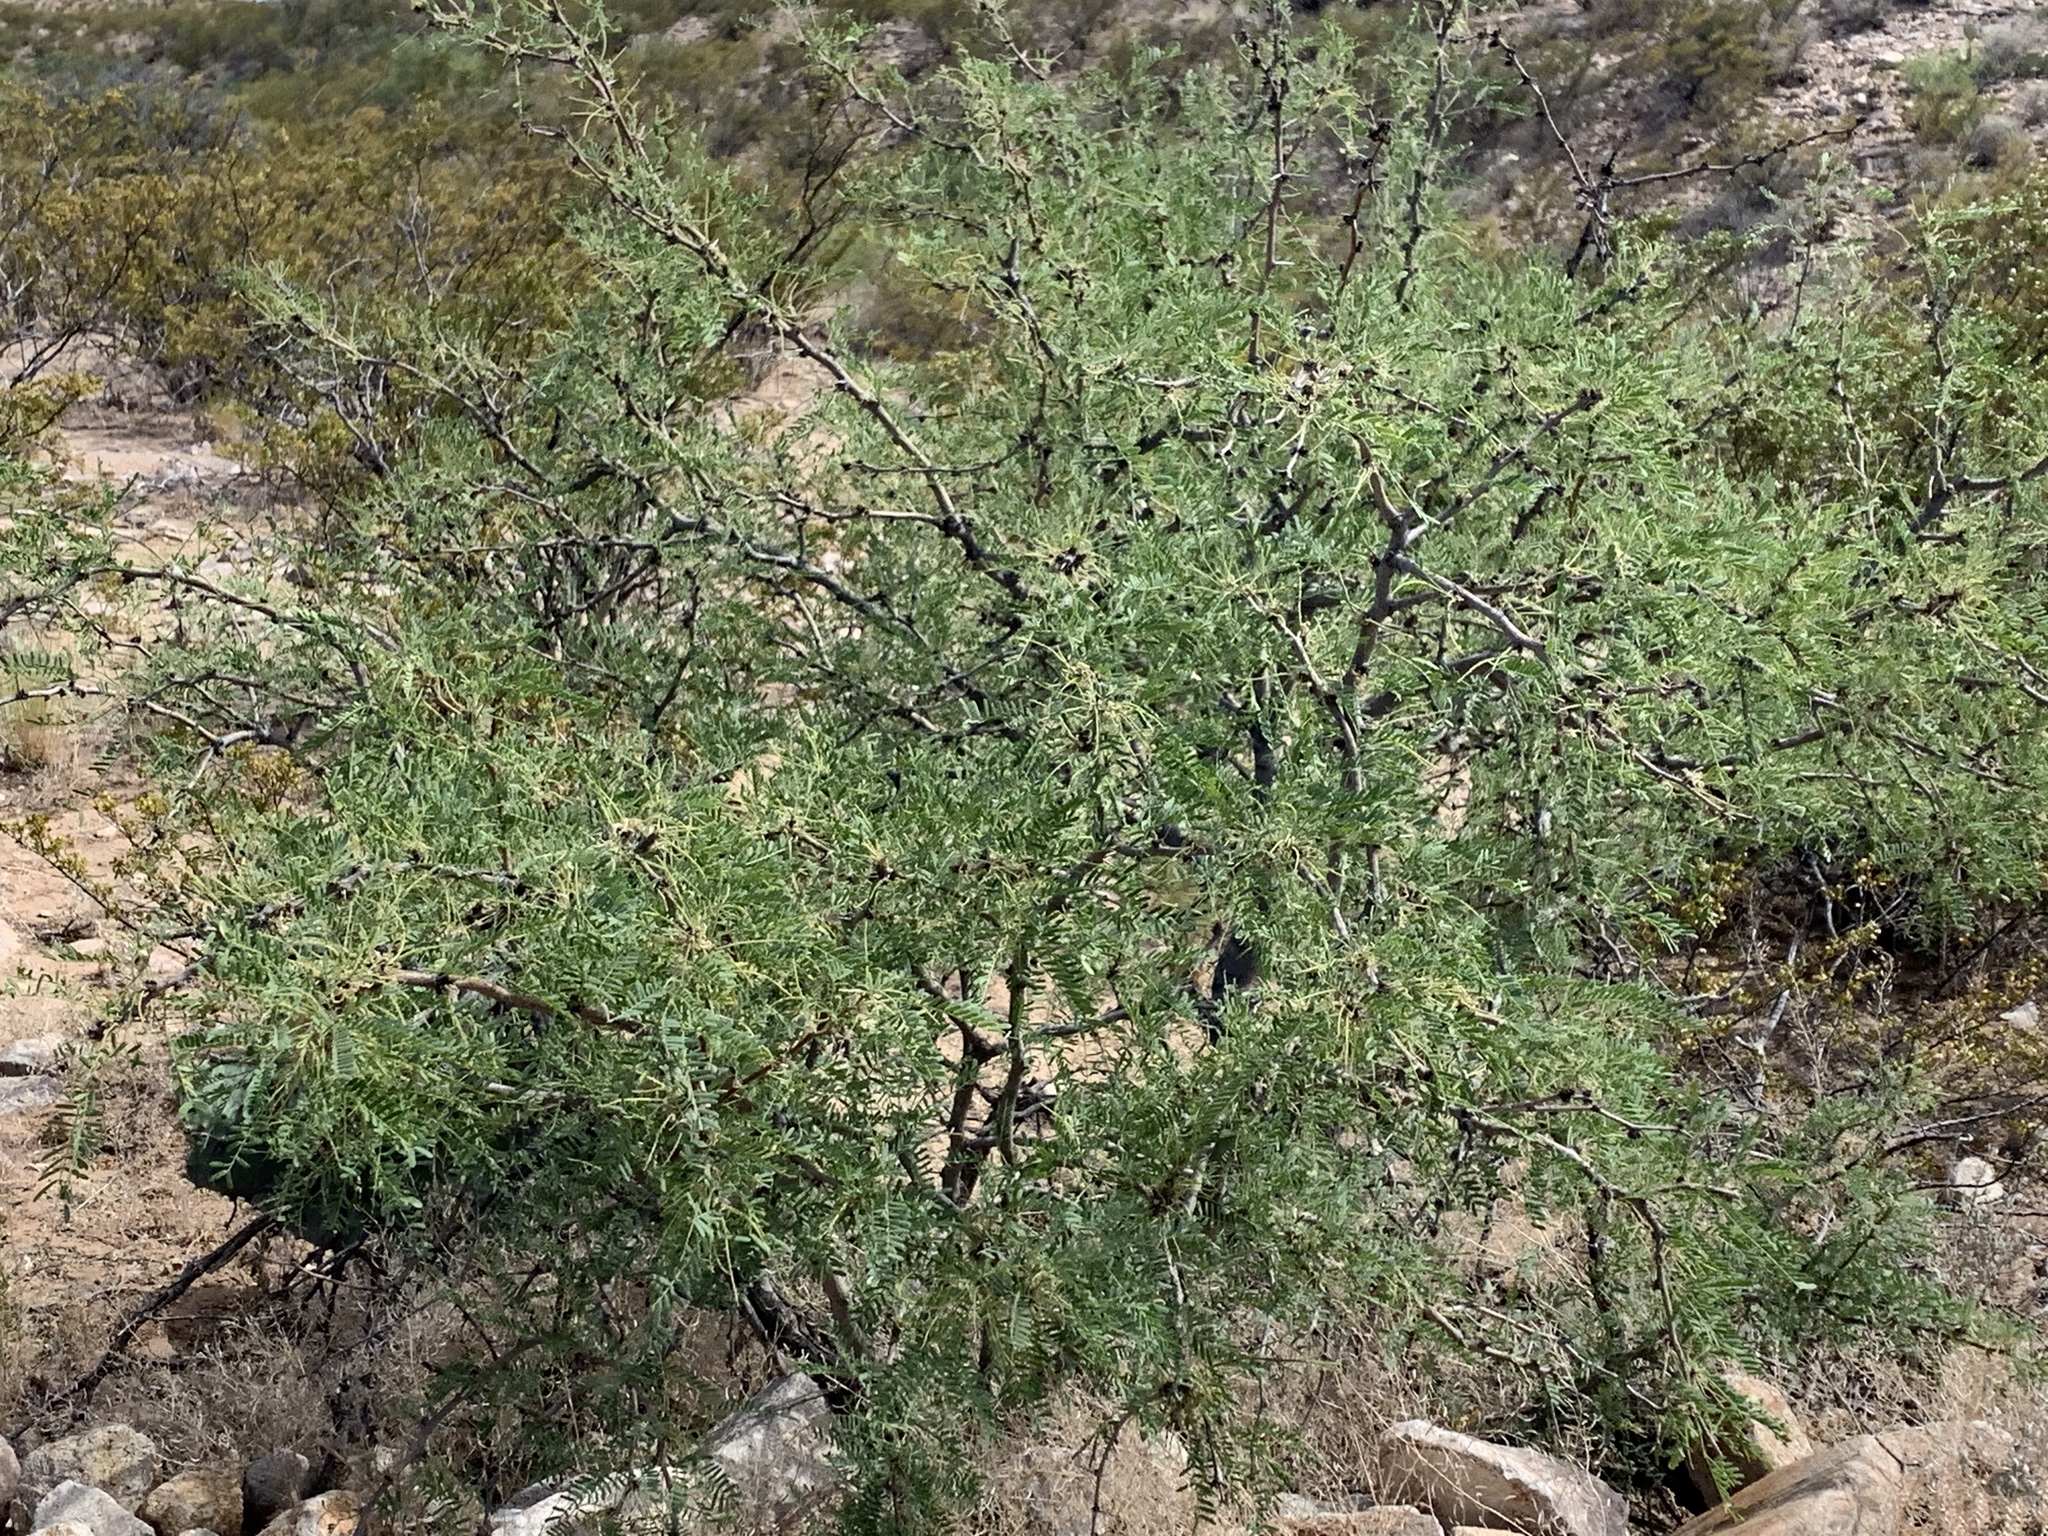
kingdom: Plantae
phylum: Tracheophyta
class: Magnoliopsida
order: Fabales
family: Fabaceae
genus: Prosopis
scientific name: Prosopis glandulosa
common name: Honey mesquite
